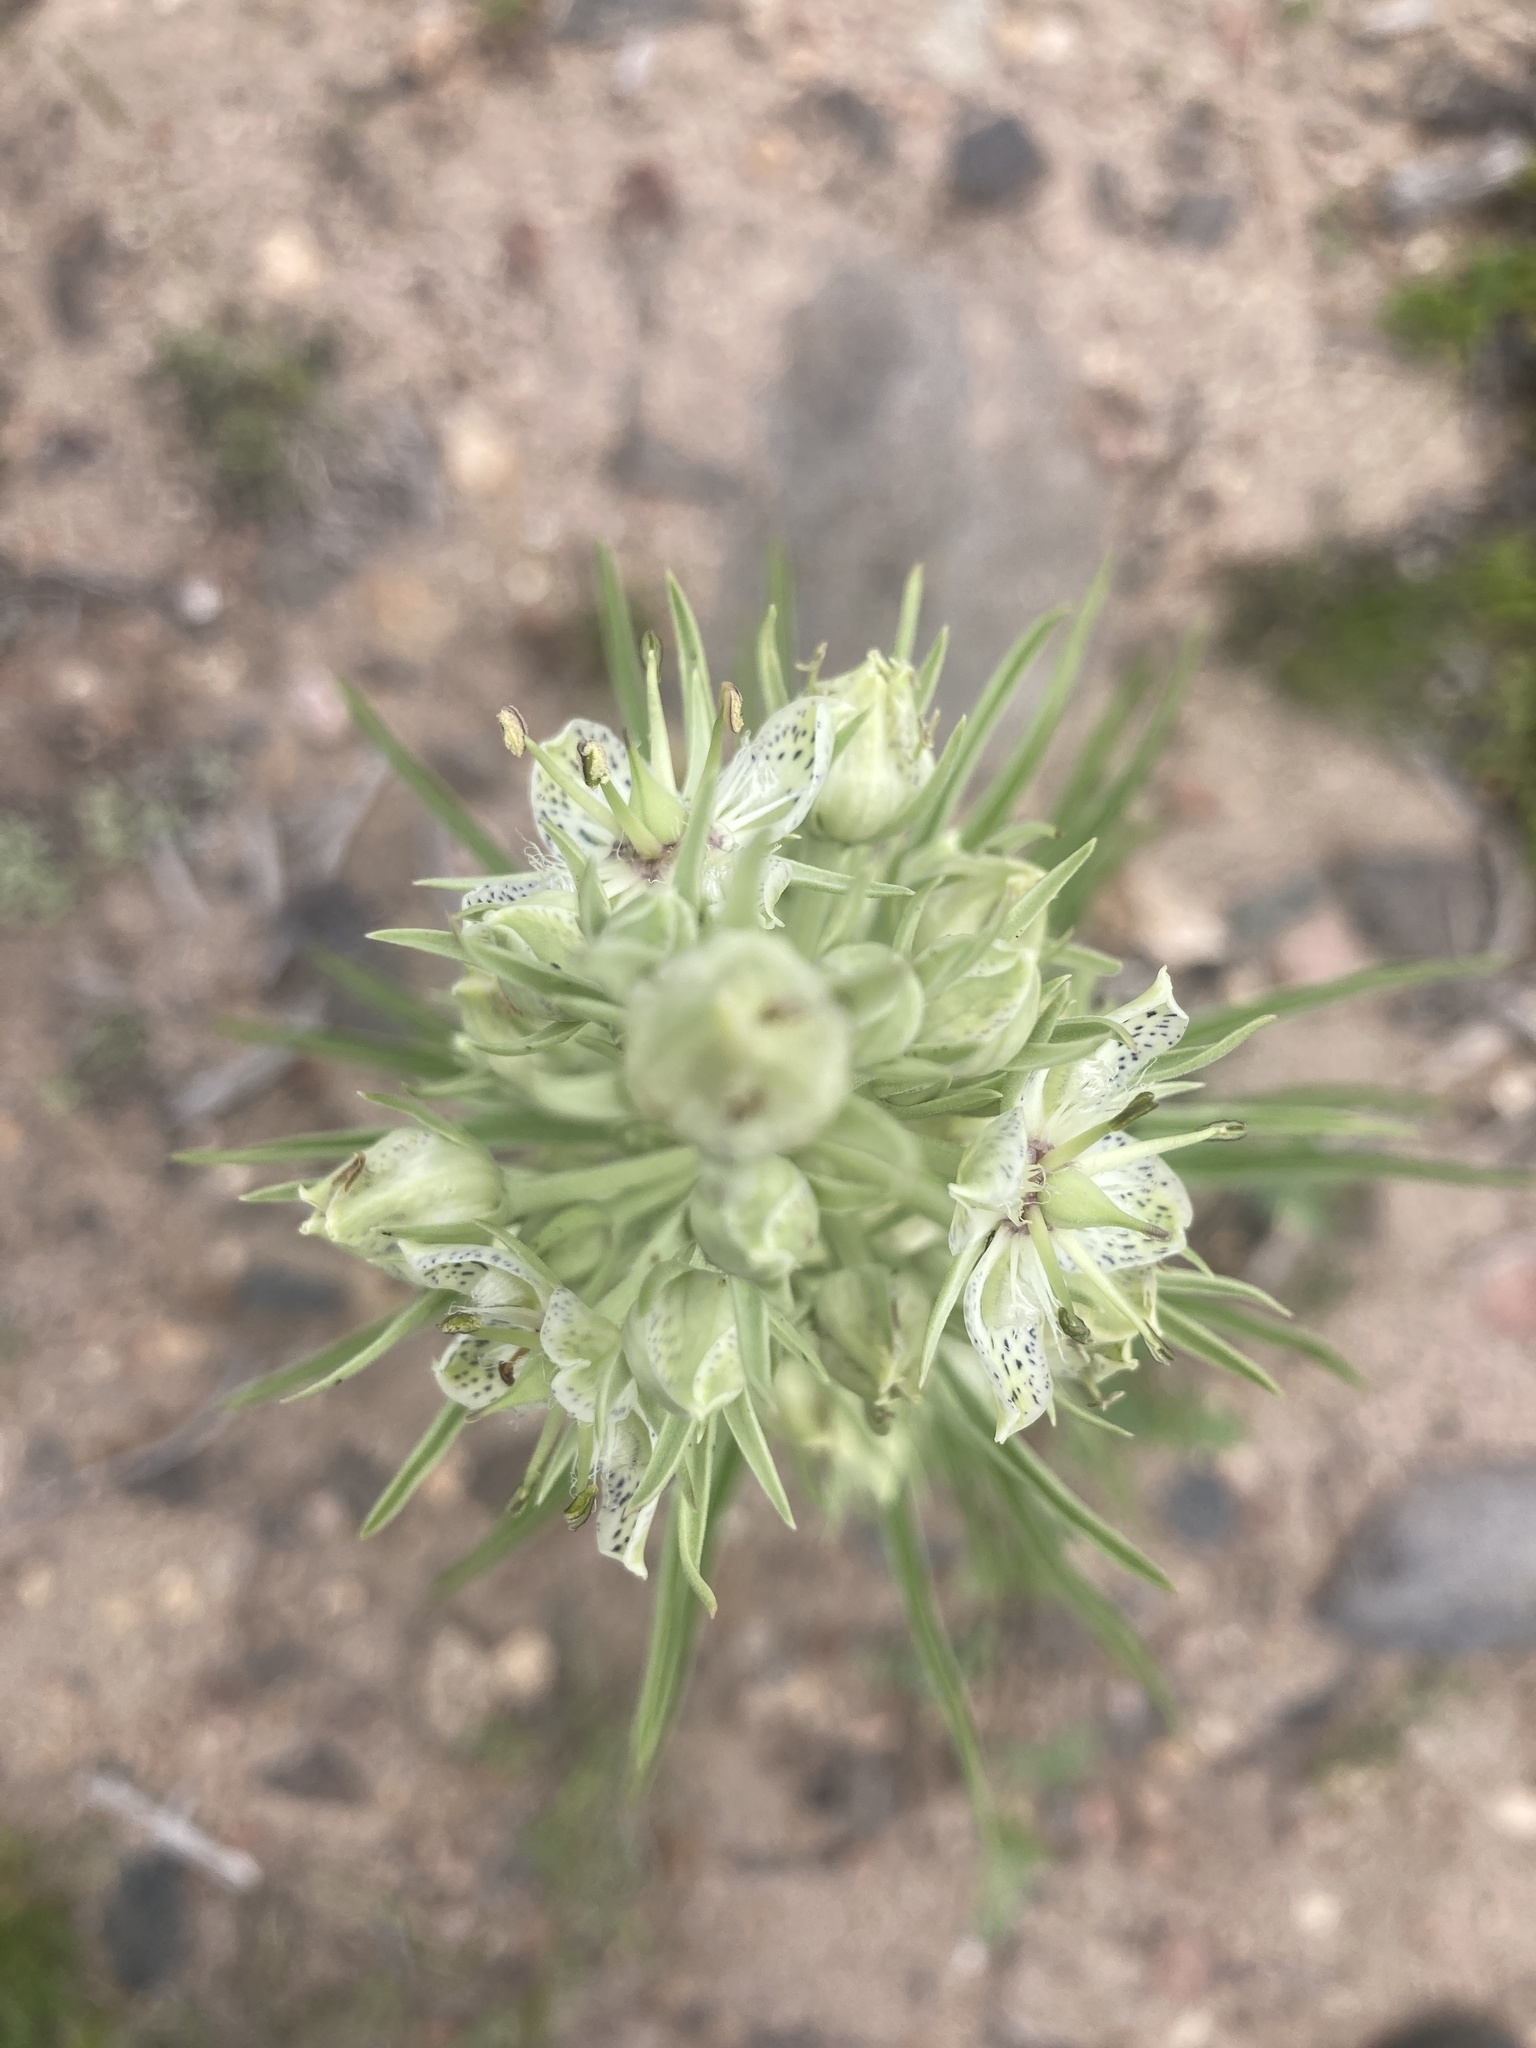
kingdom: Plantae
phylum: Tracheophyta
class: Magnoliopsida
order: Gentianales
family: Gentianaceae
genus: Frasera
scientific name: Frasera speciosa
